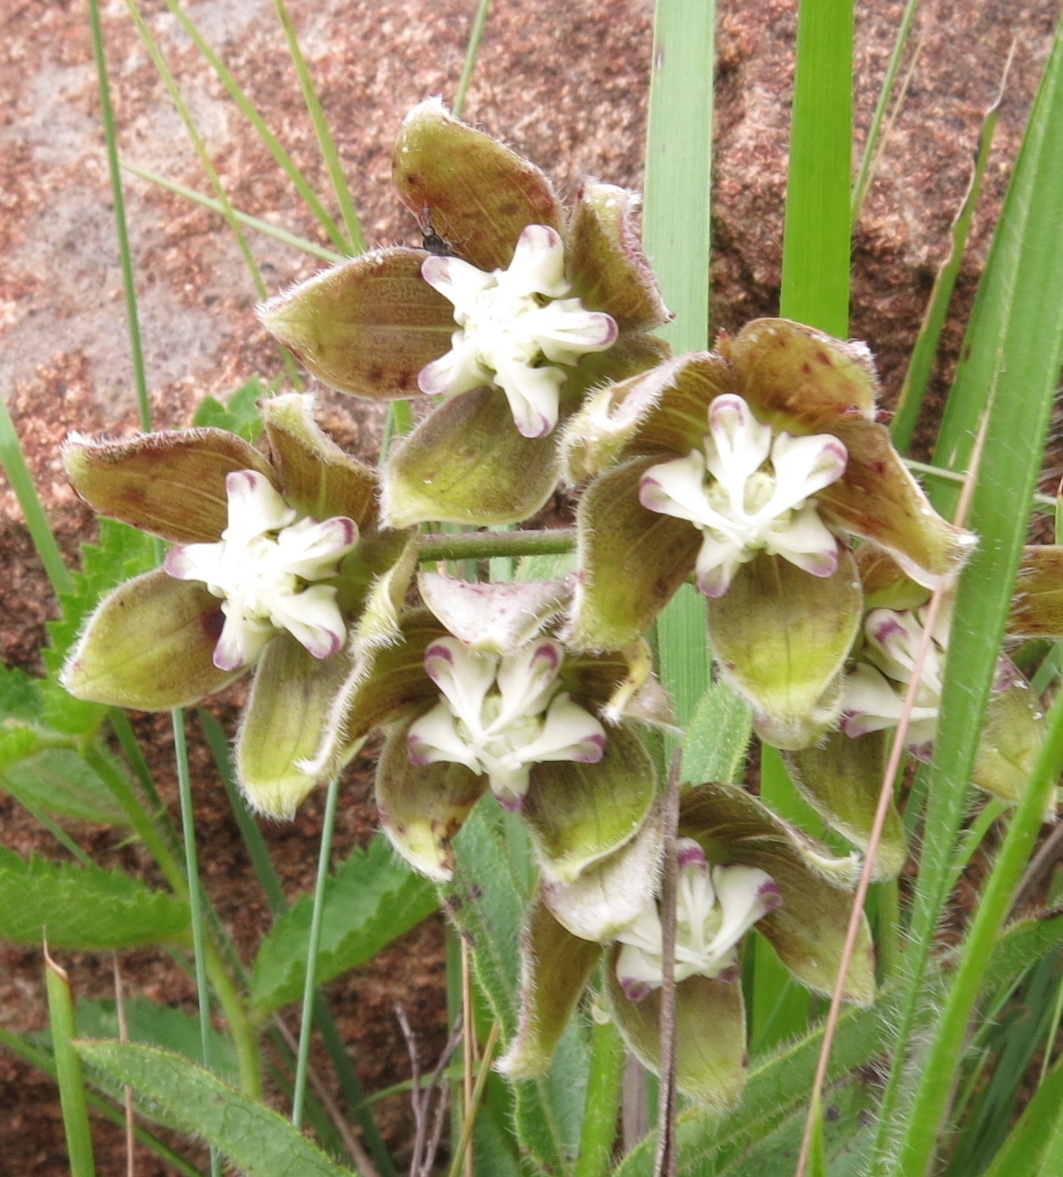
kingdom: Plantae
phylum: Tracheophyta
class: Magnoliopsida
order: Gentianales
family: Apocynaceae
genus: Asclepias
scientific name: Asclepias cultriformis
